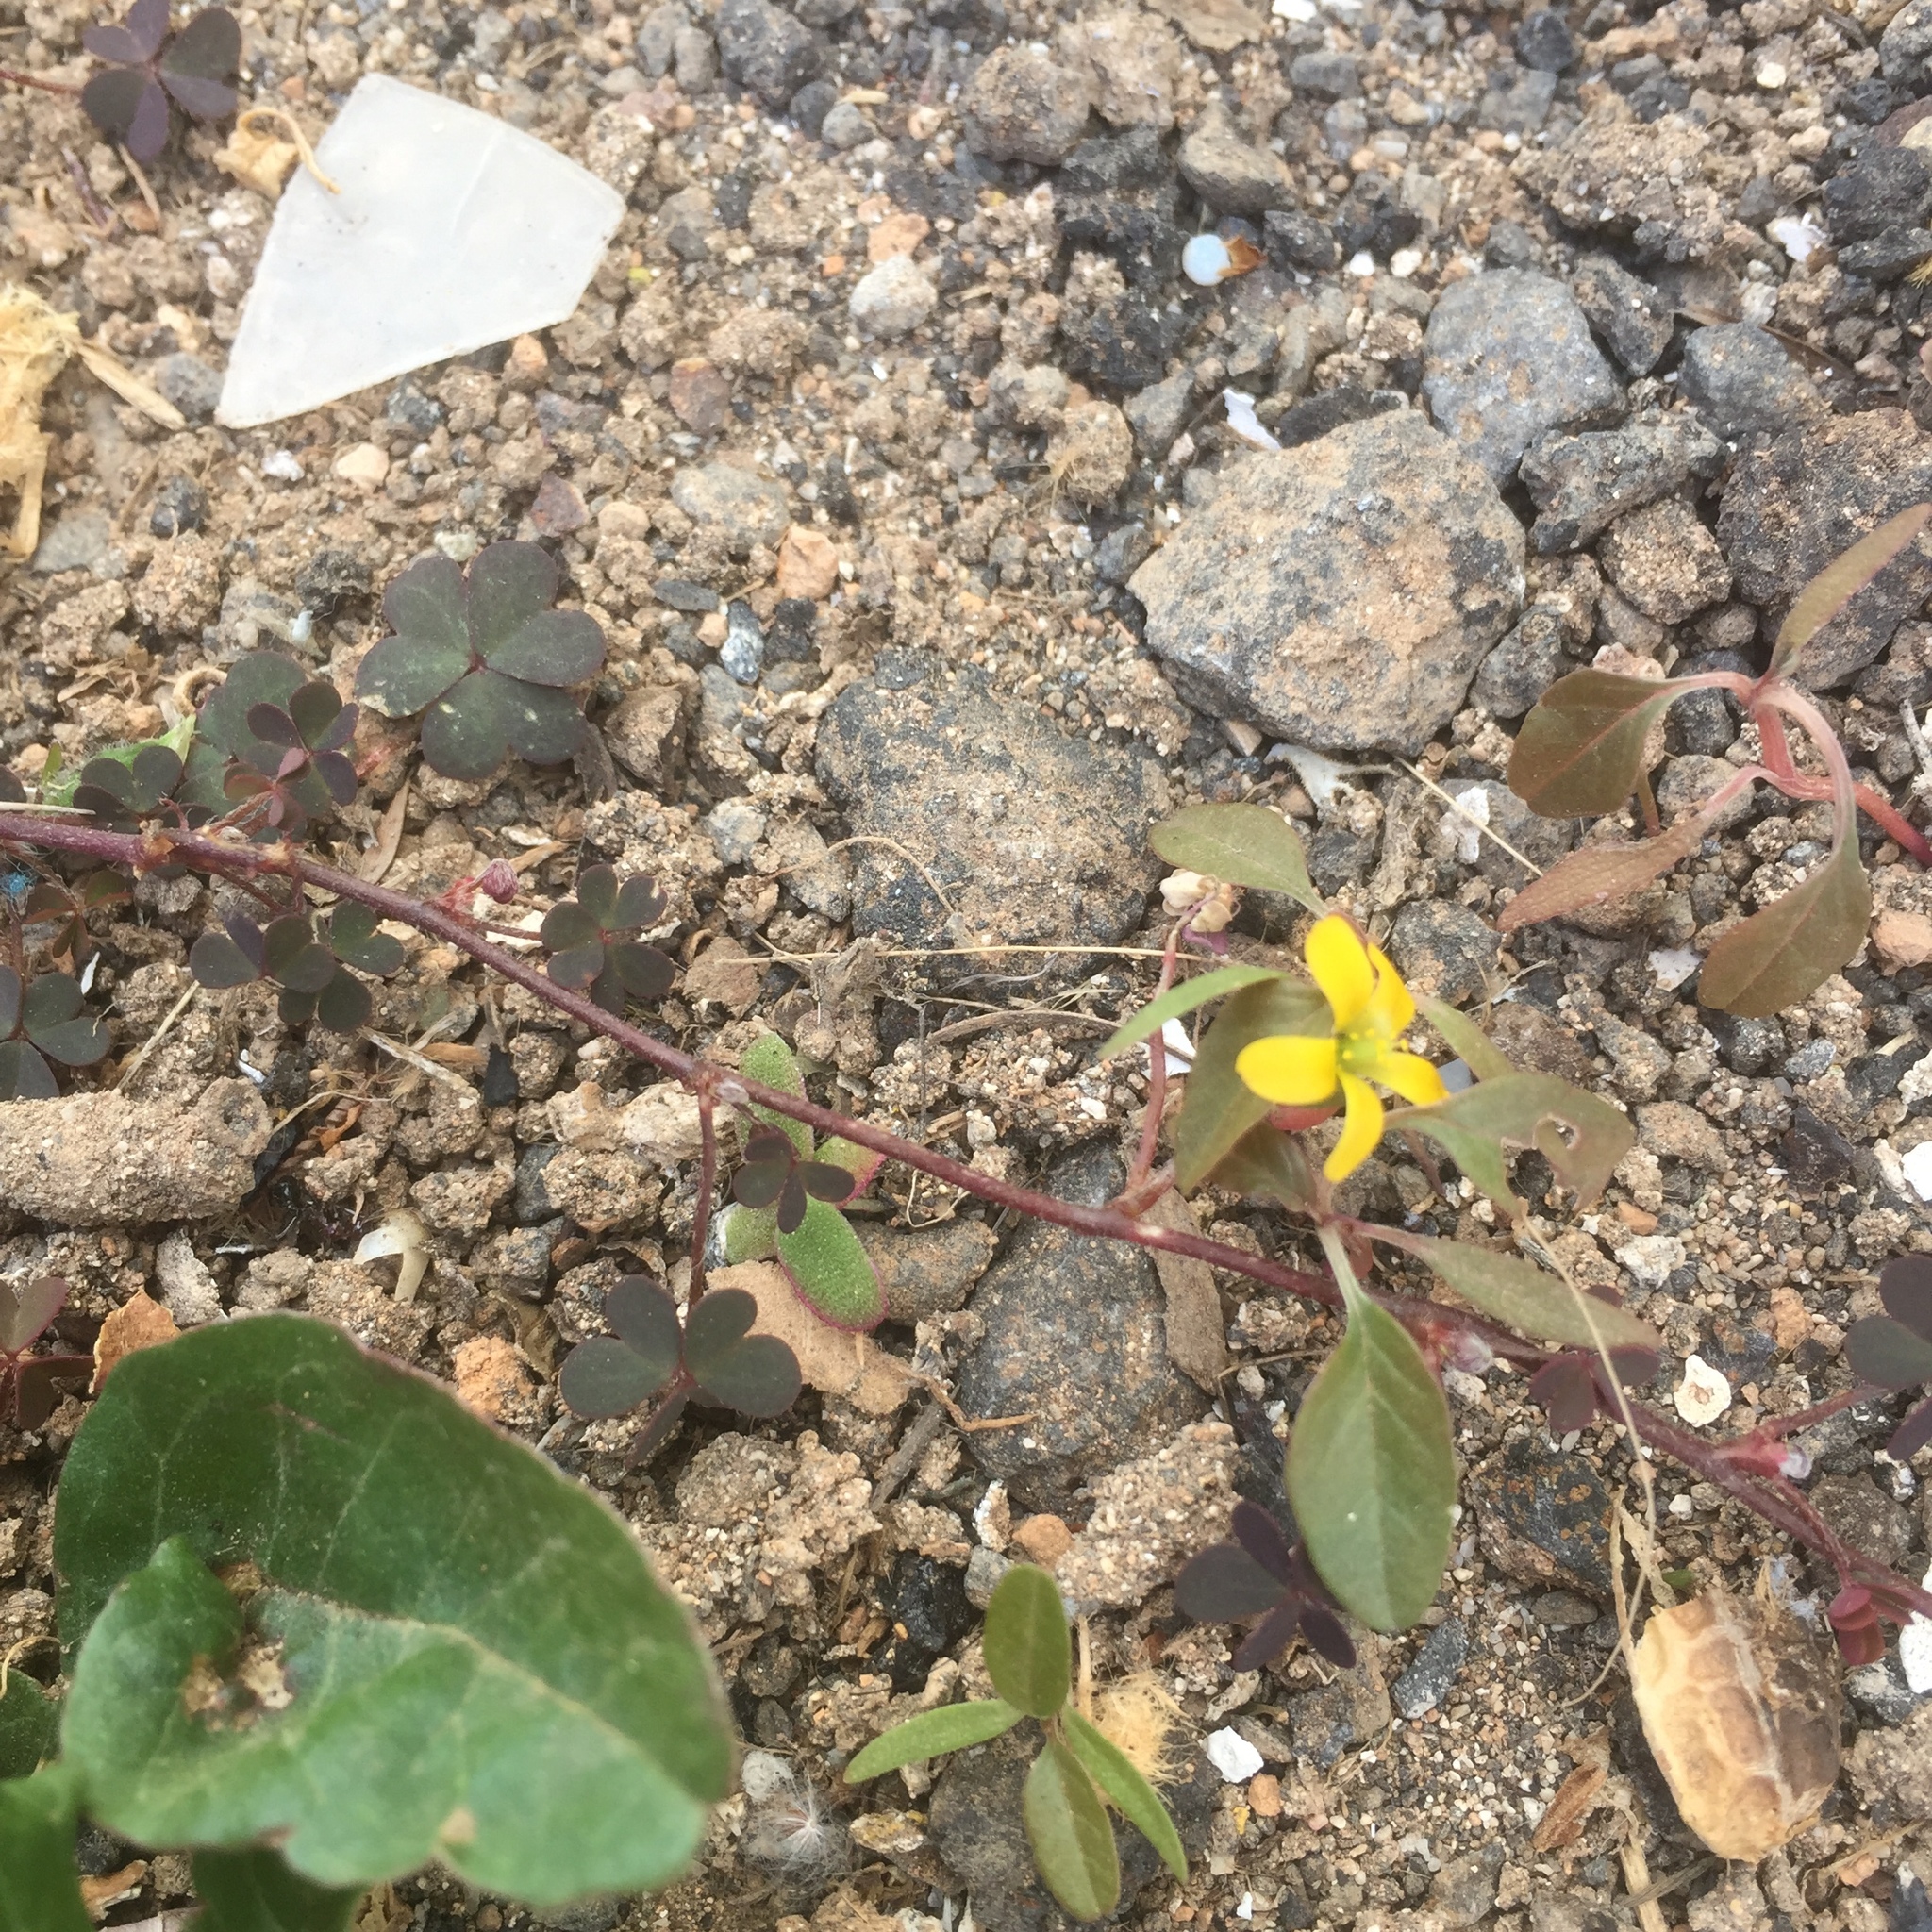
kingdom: Plantae
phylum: Tracheophyta
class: Magnoliopsida
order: Oxalidales
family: Oxalidaceae
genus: Oxalis
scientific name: Oxalis corniculata
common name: Procumbent yellow-sorrel
